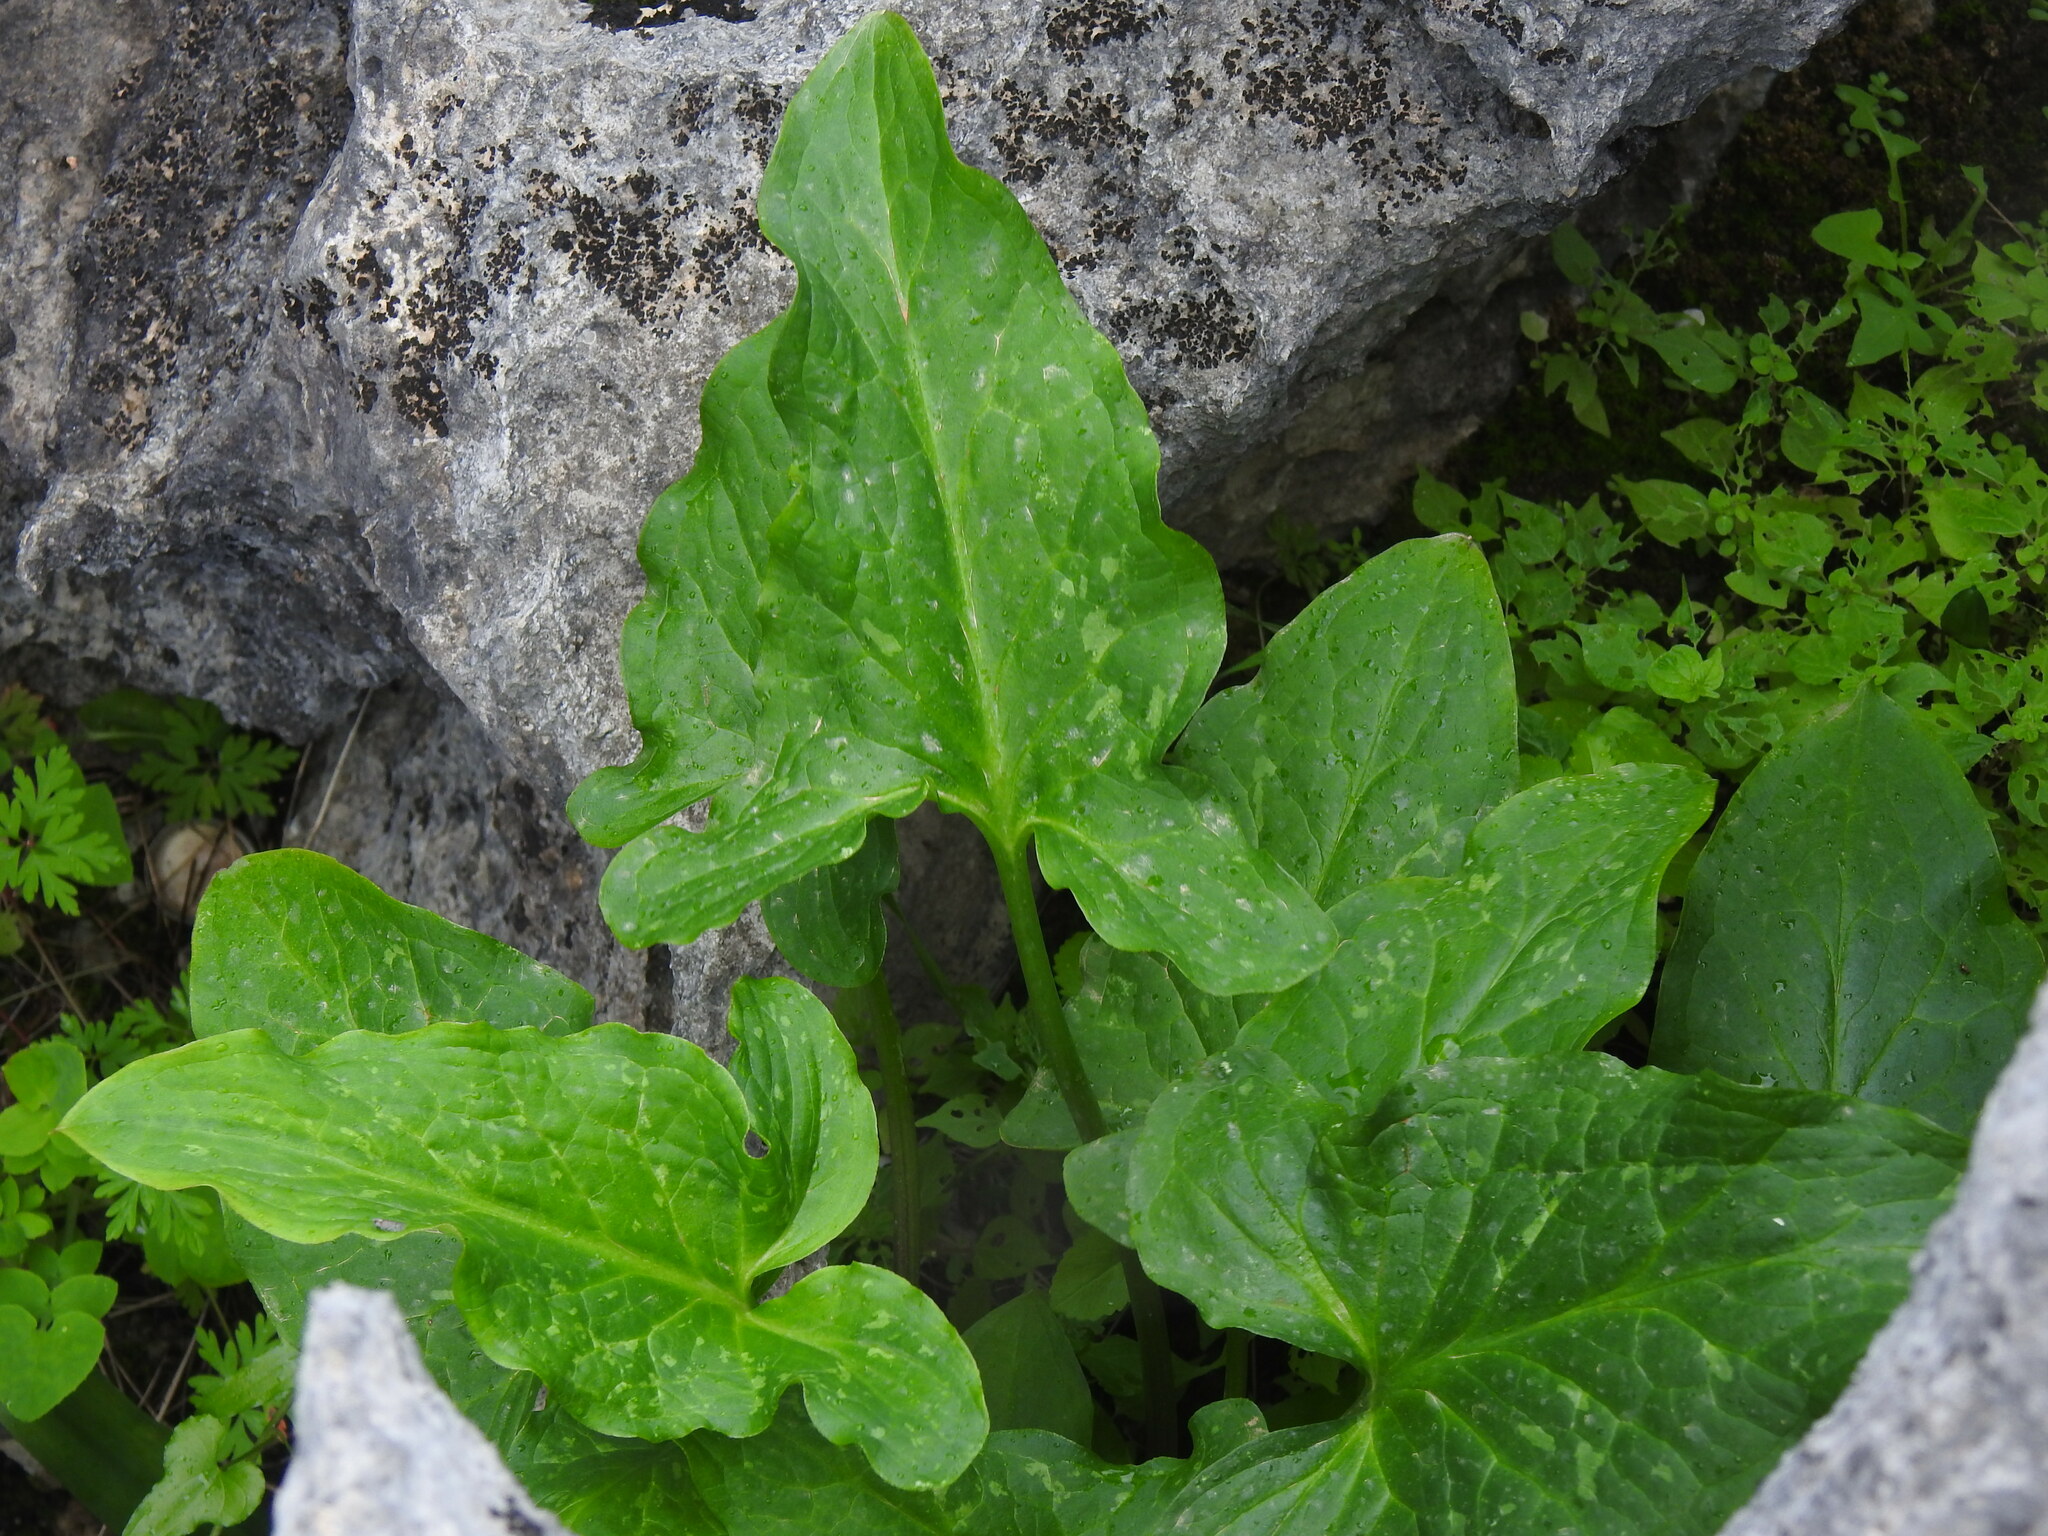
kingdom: Plantae
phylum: Tracheophyta
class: Liliopsida
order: Alismatales
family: Araceae
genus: Arum
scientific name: Arum italicum
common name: Italian lords-and-ladies
